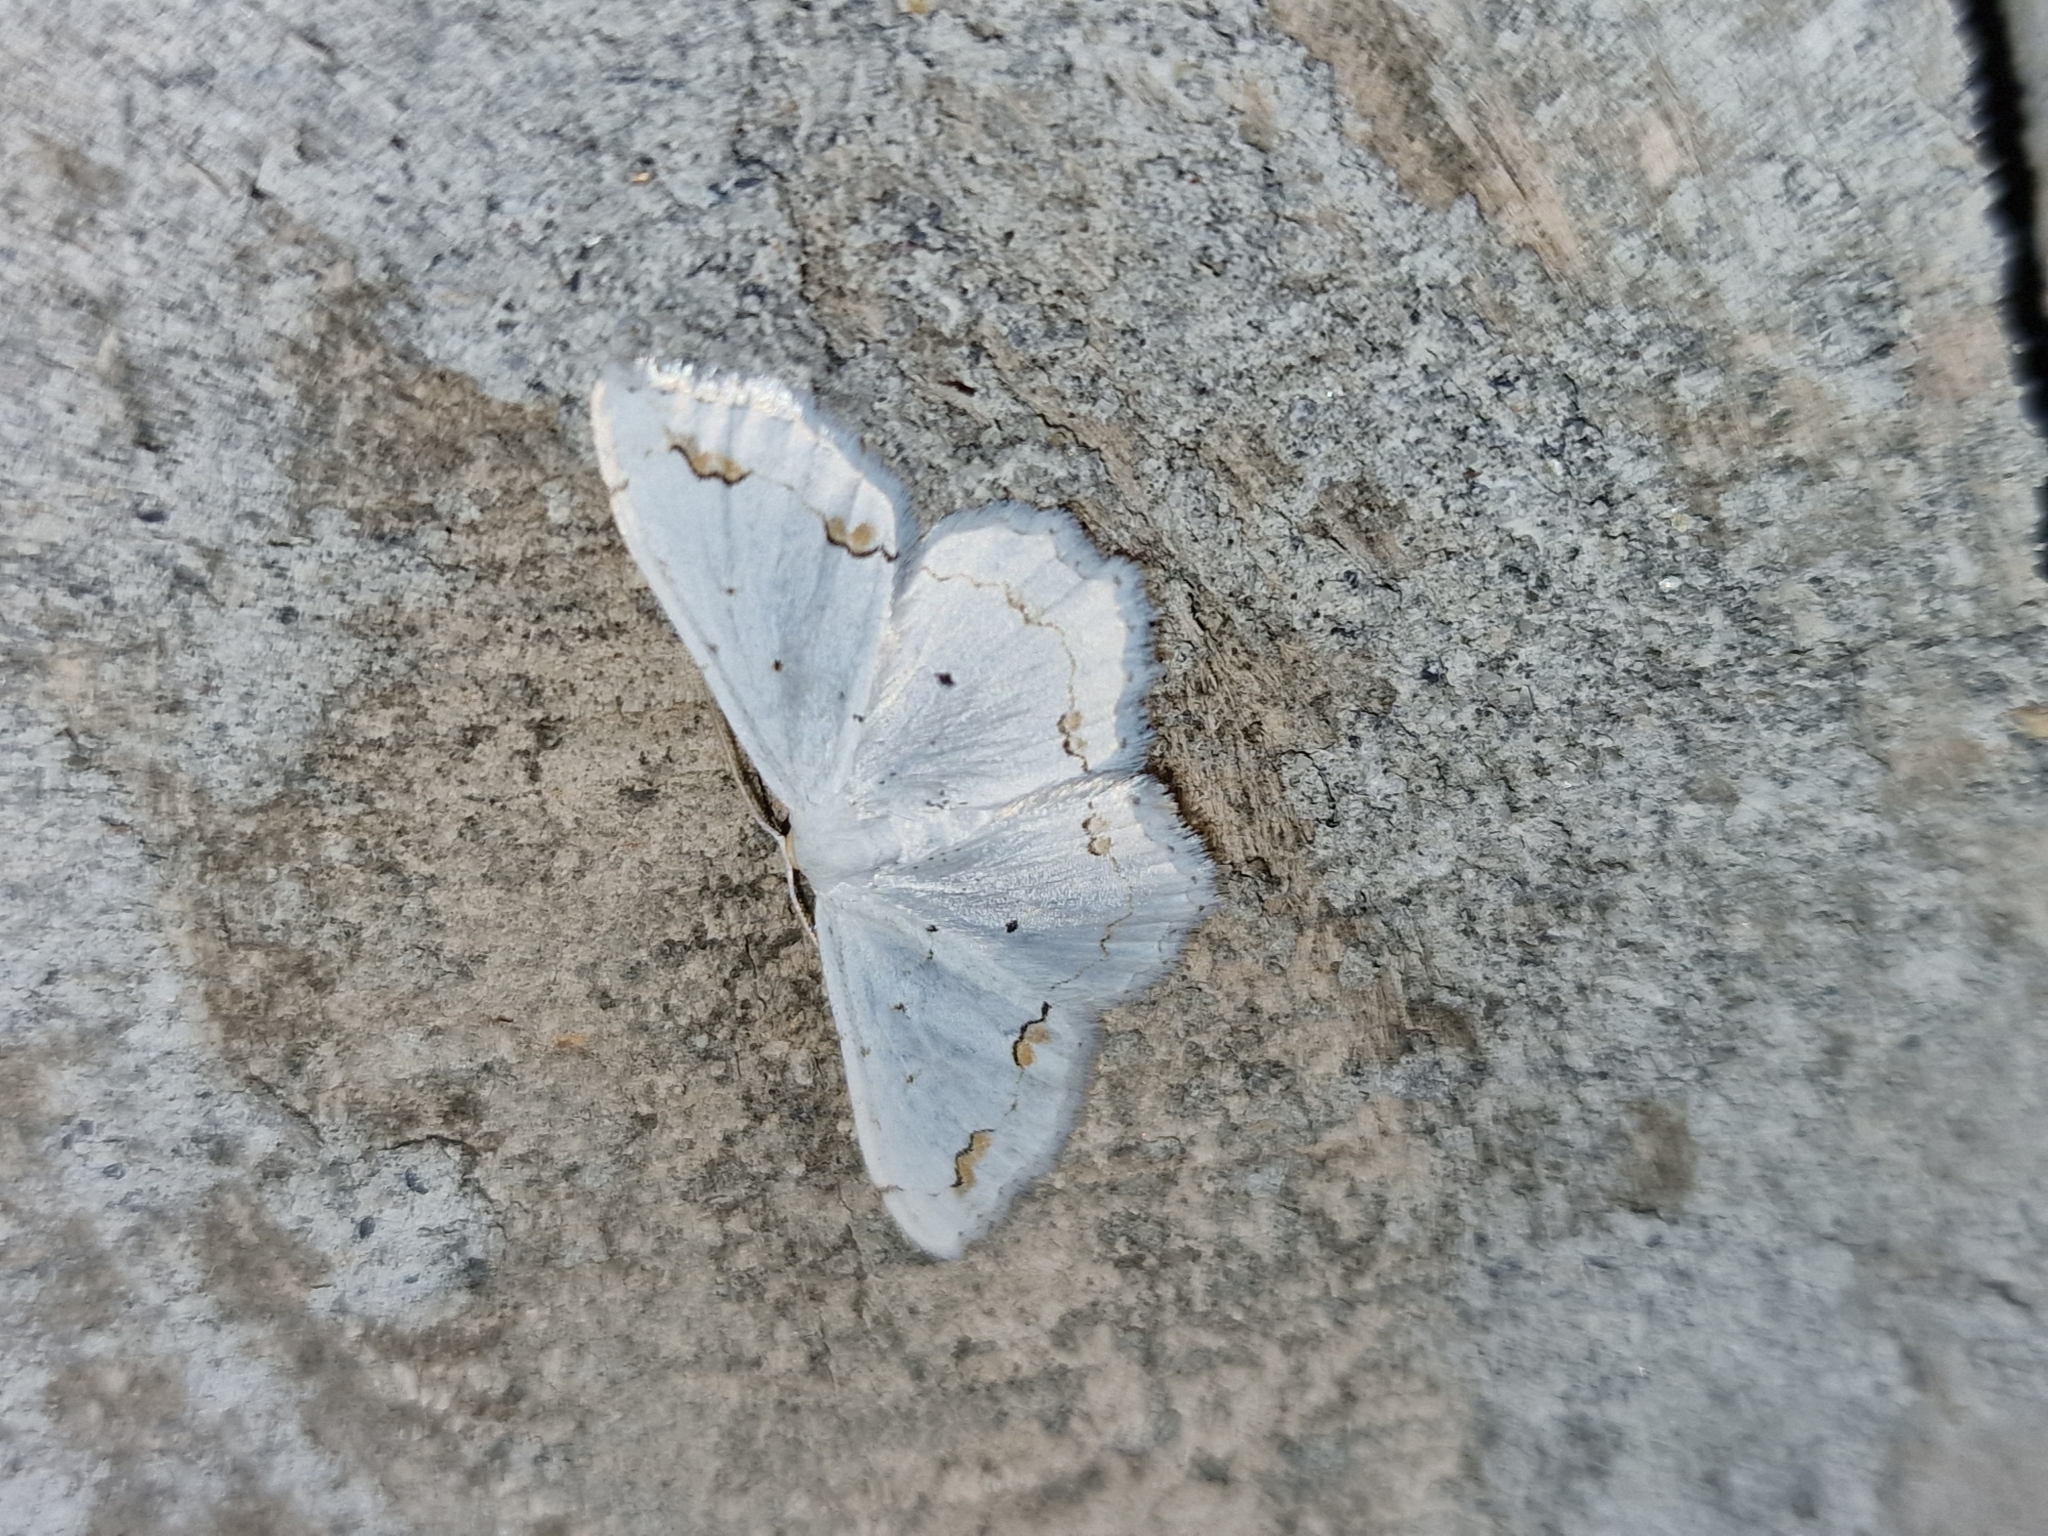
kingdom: Animalia
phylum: Arthropoda
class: Insecta
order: Lepidoptera
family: Geometridae
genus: Scopula
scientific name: Scopula ornata
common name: Lace border
